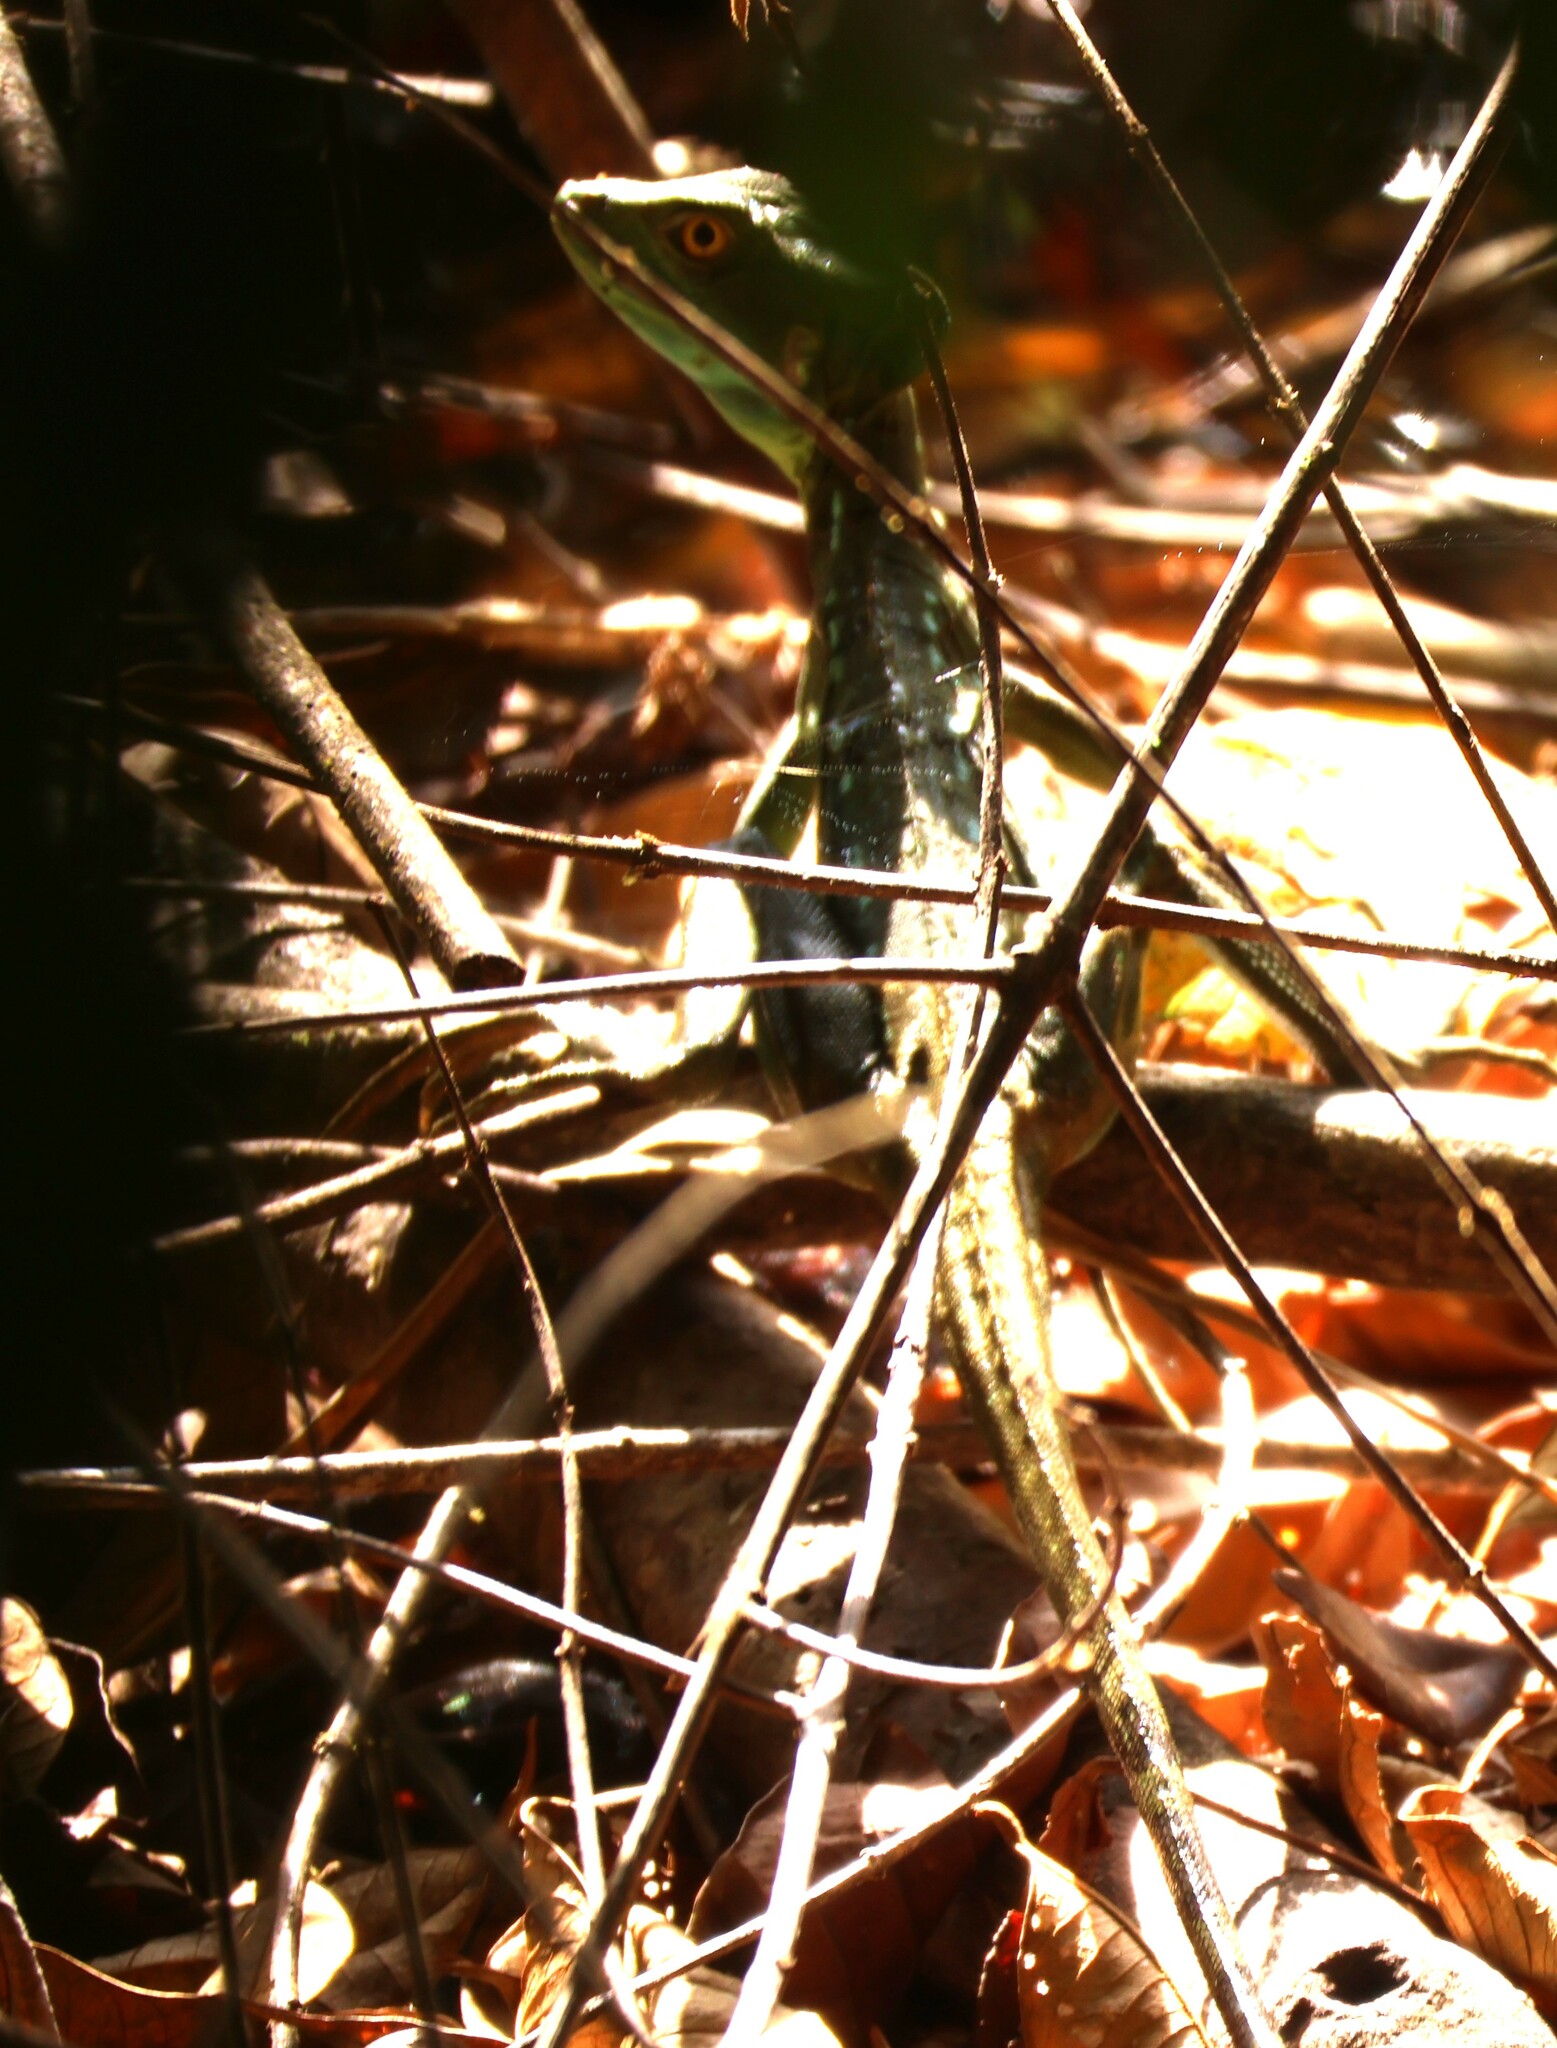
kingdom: Animalia
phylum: Chordata
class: Squamata
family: Corytophanidae
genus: Basiliscus
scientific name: Basiliscus plumifrons
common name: Green basilisk
